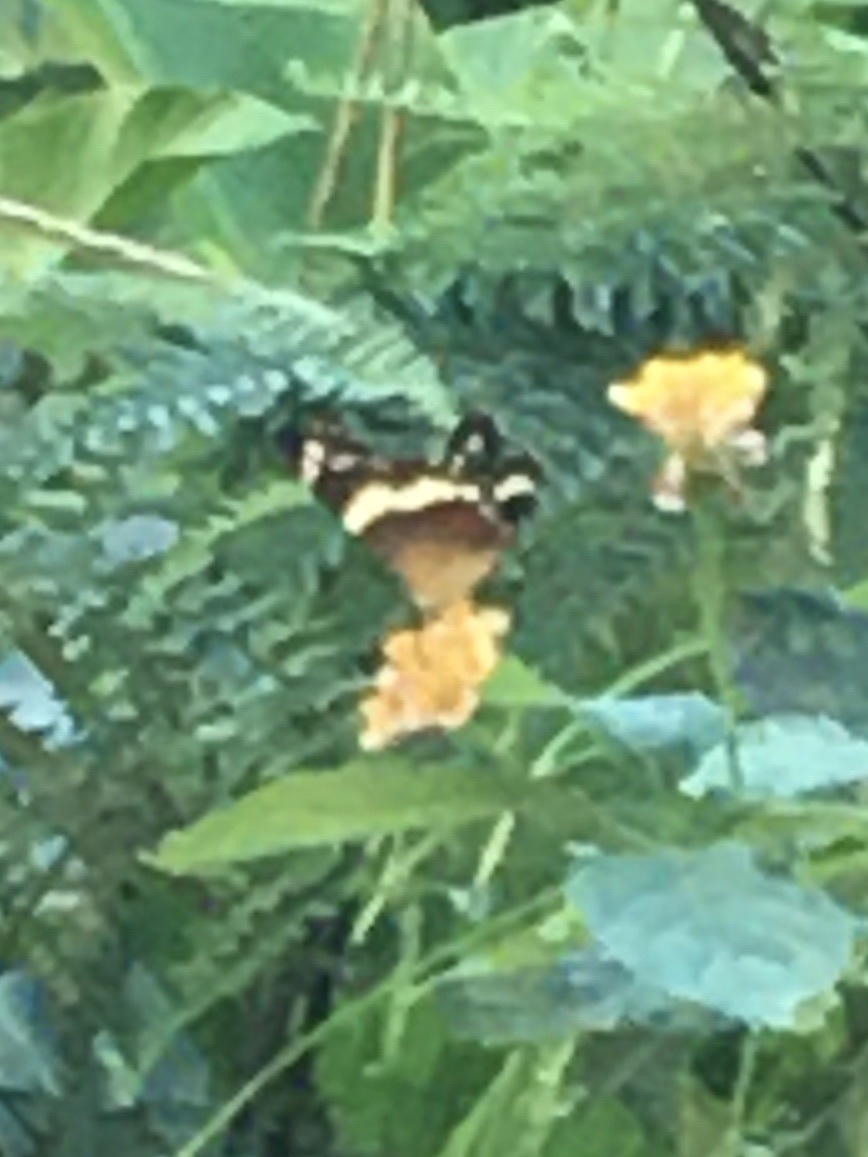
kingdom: Animalia
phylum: Arthropoda
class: Insecta
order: Lepidoptera
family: Nymphalidae
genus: Anartia
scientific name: Anartia fatima
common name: Banded peacock
